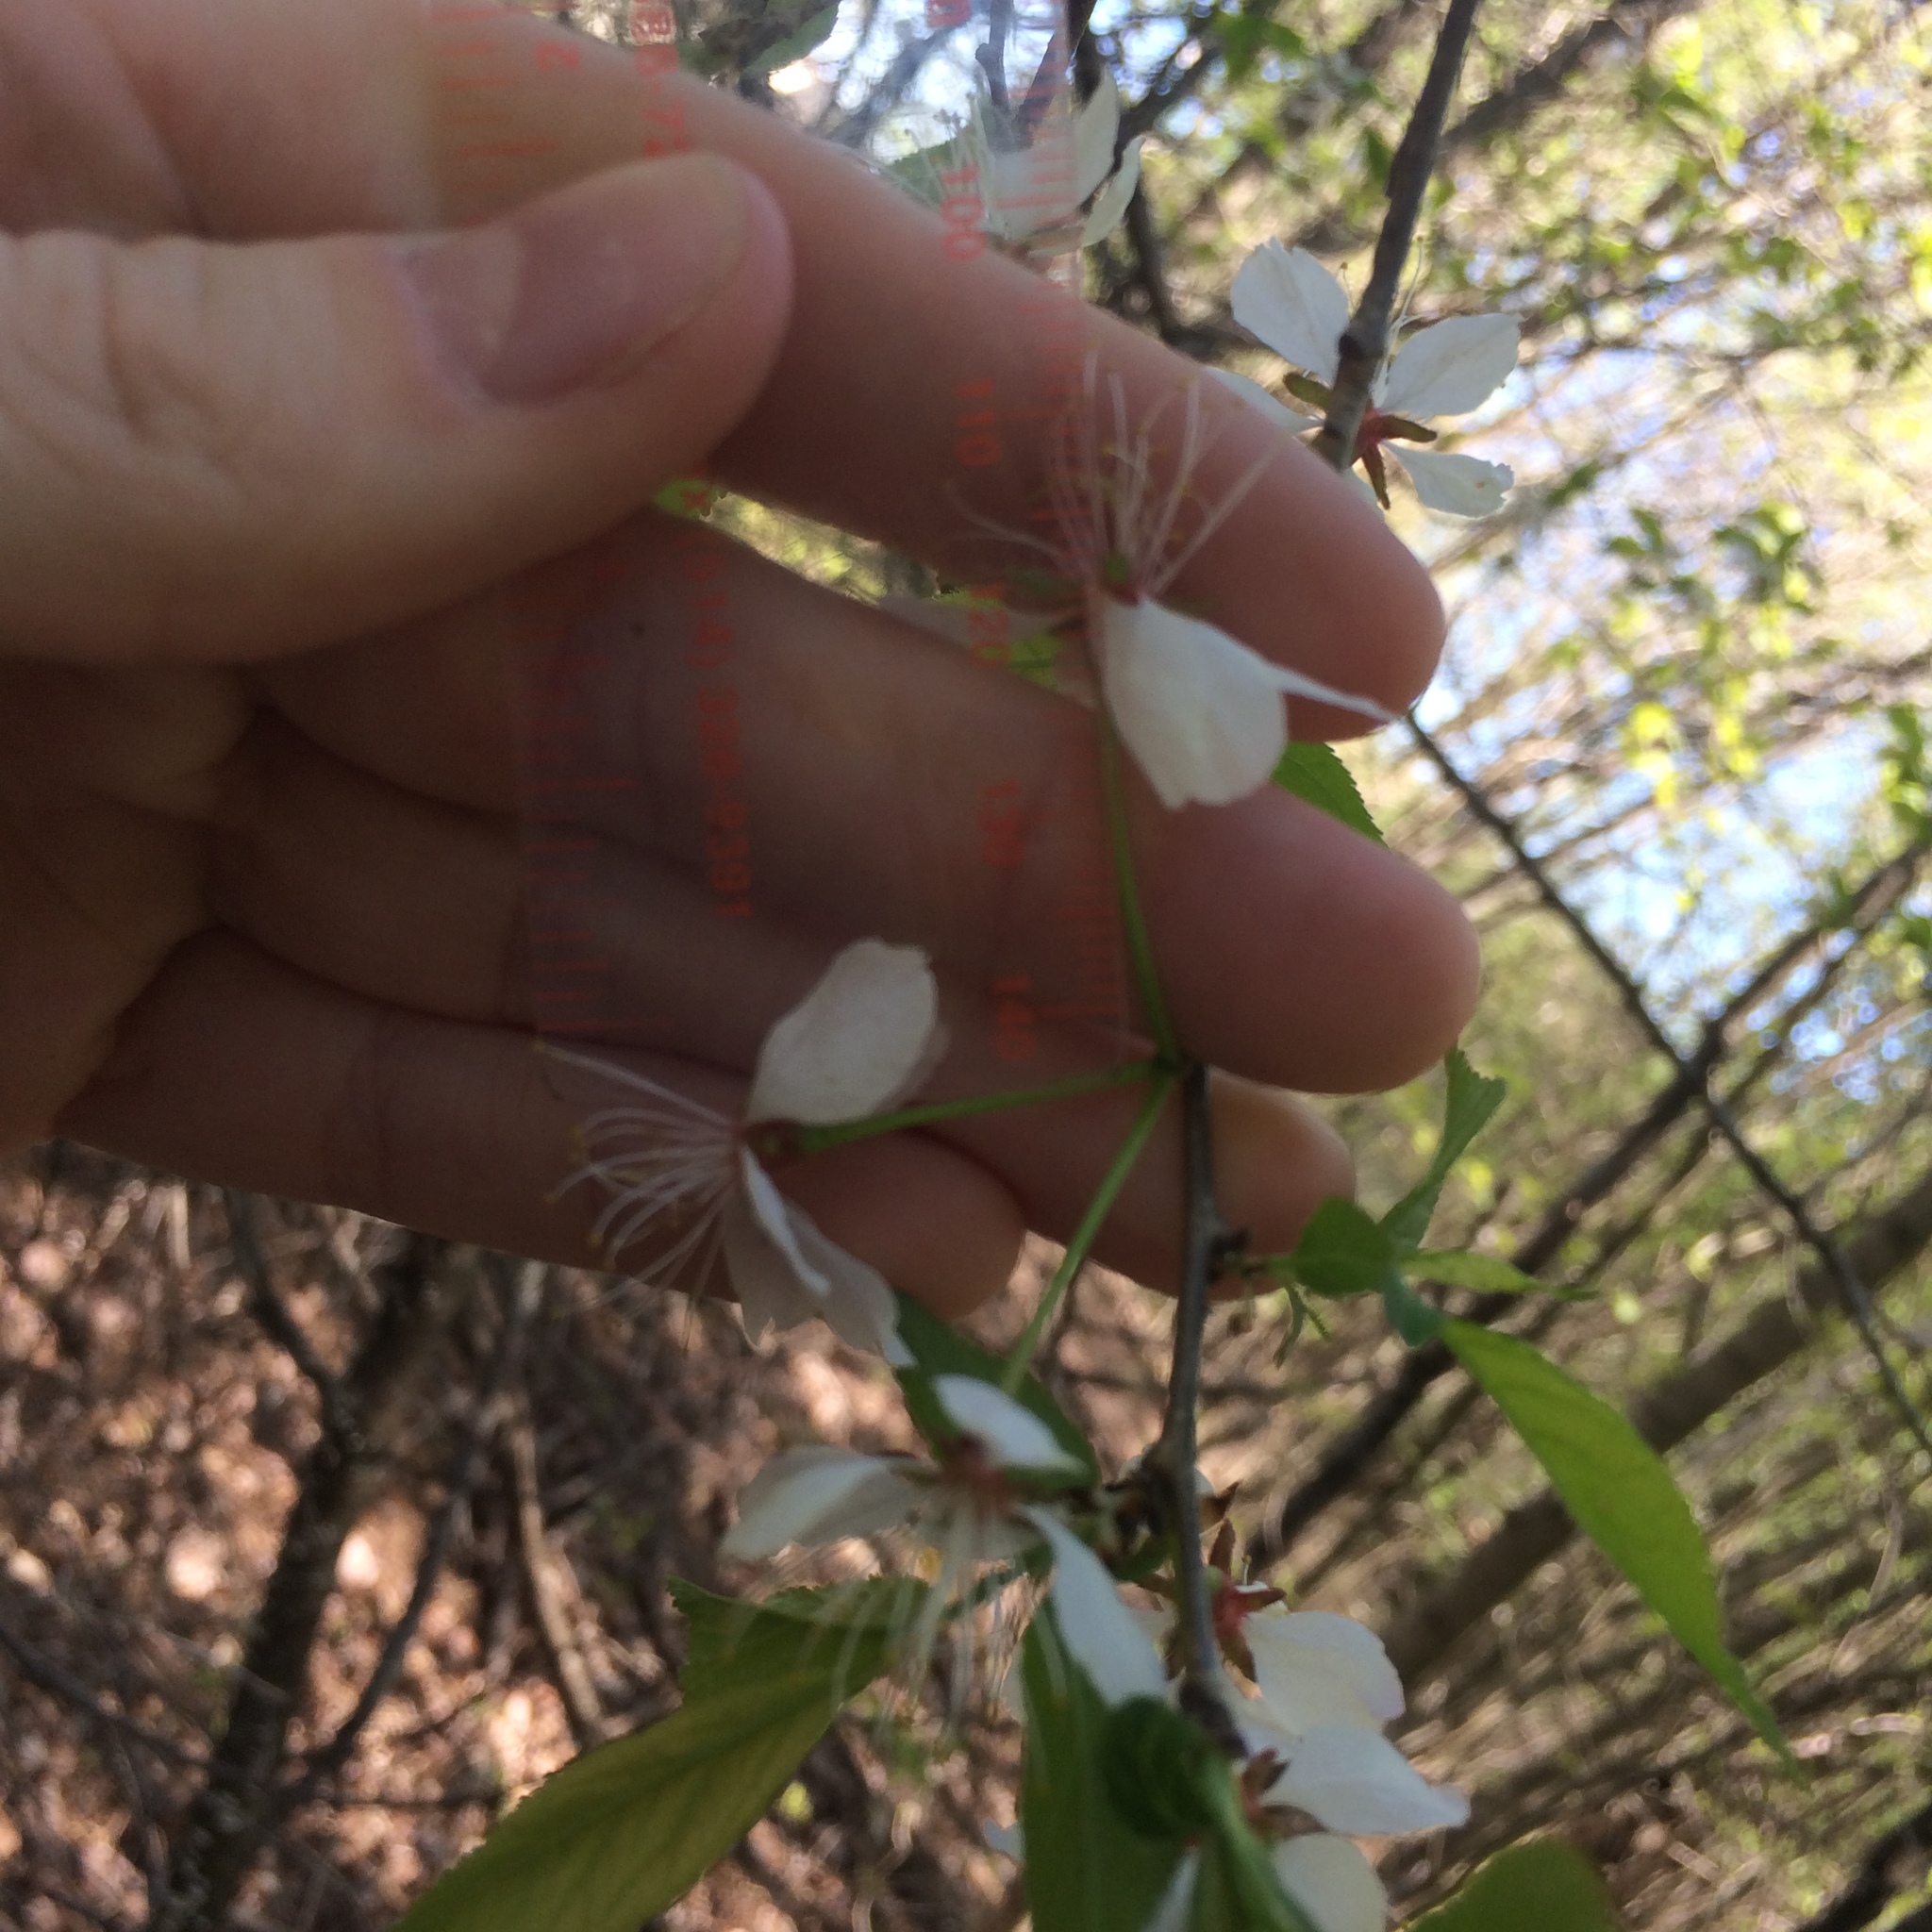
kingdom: Plantae
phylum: Tracheophyta
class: Magnoliopsida
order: Rosales
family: Rosaceae
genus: Prunus
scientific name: Prunus nigra
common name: Black plum
